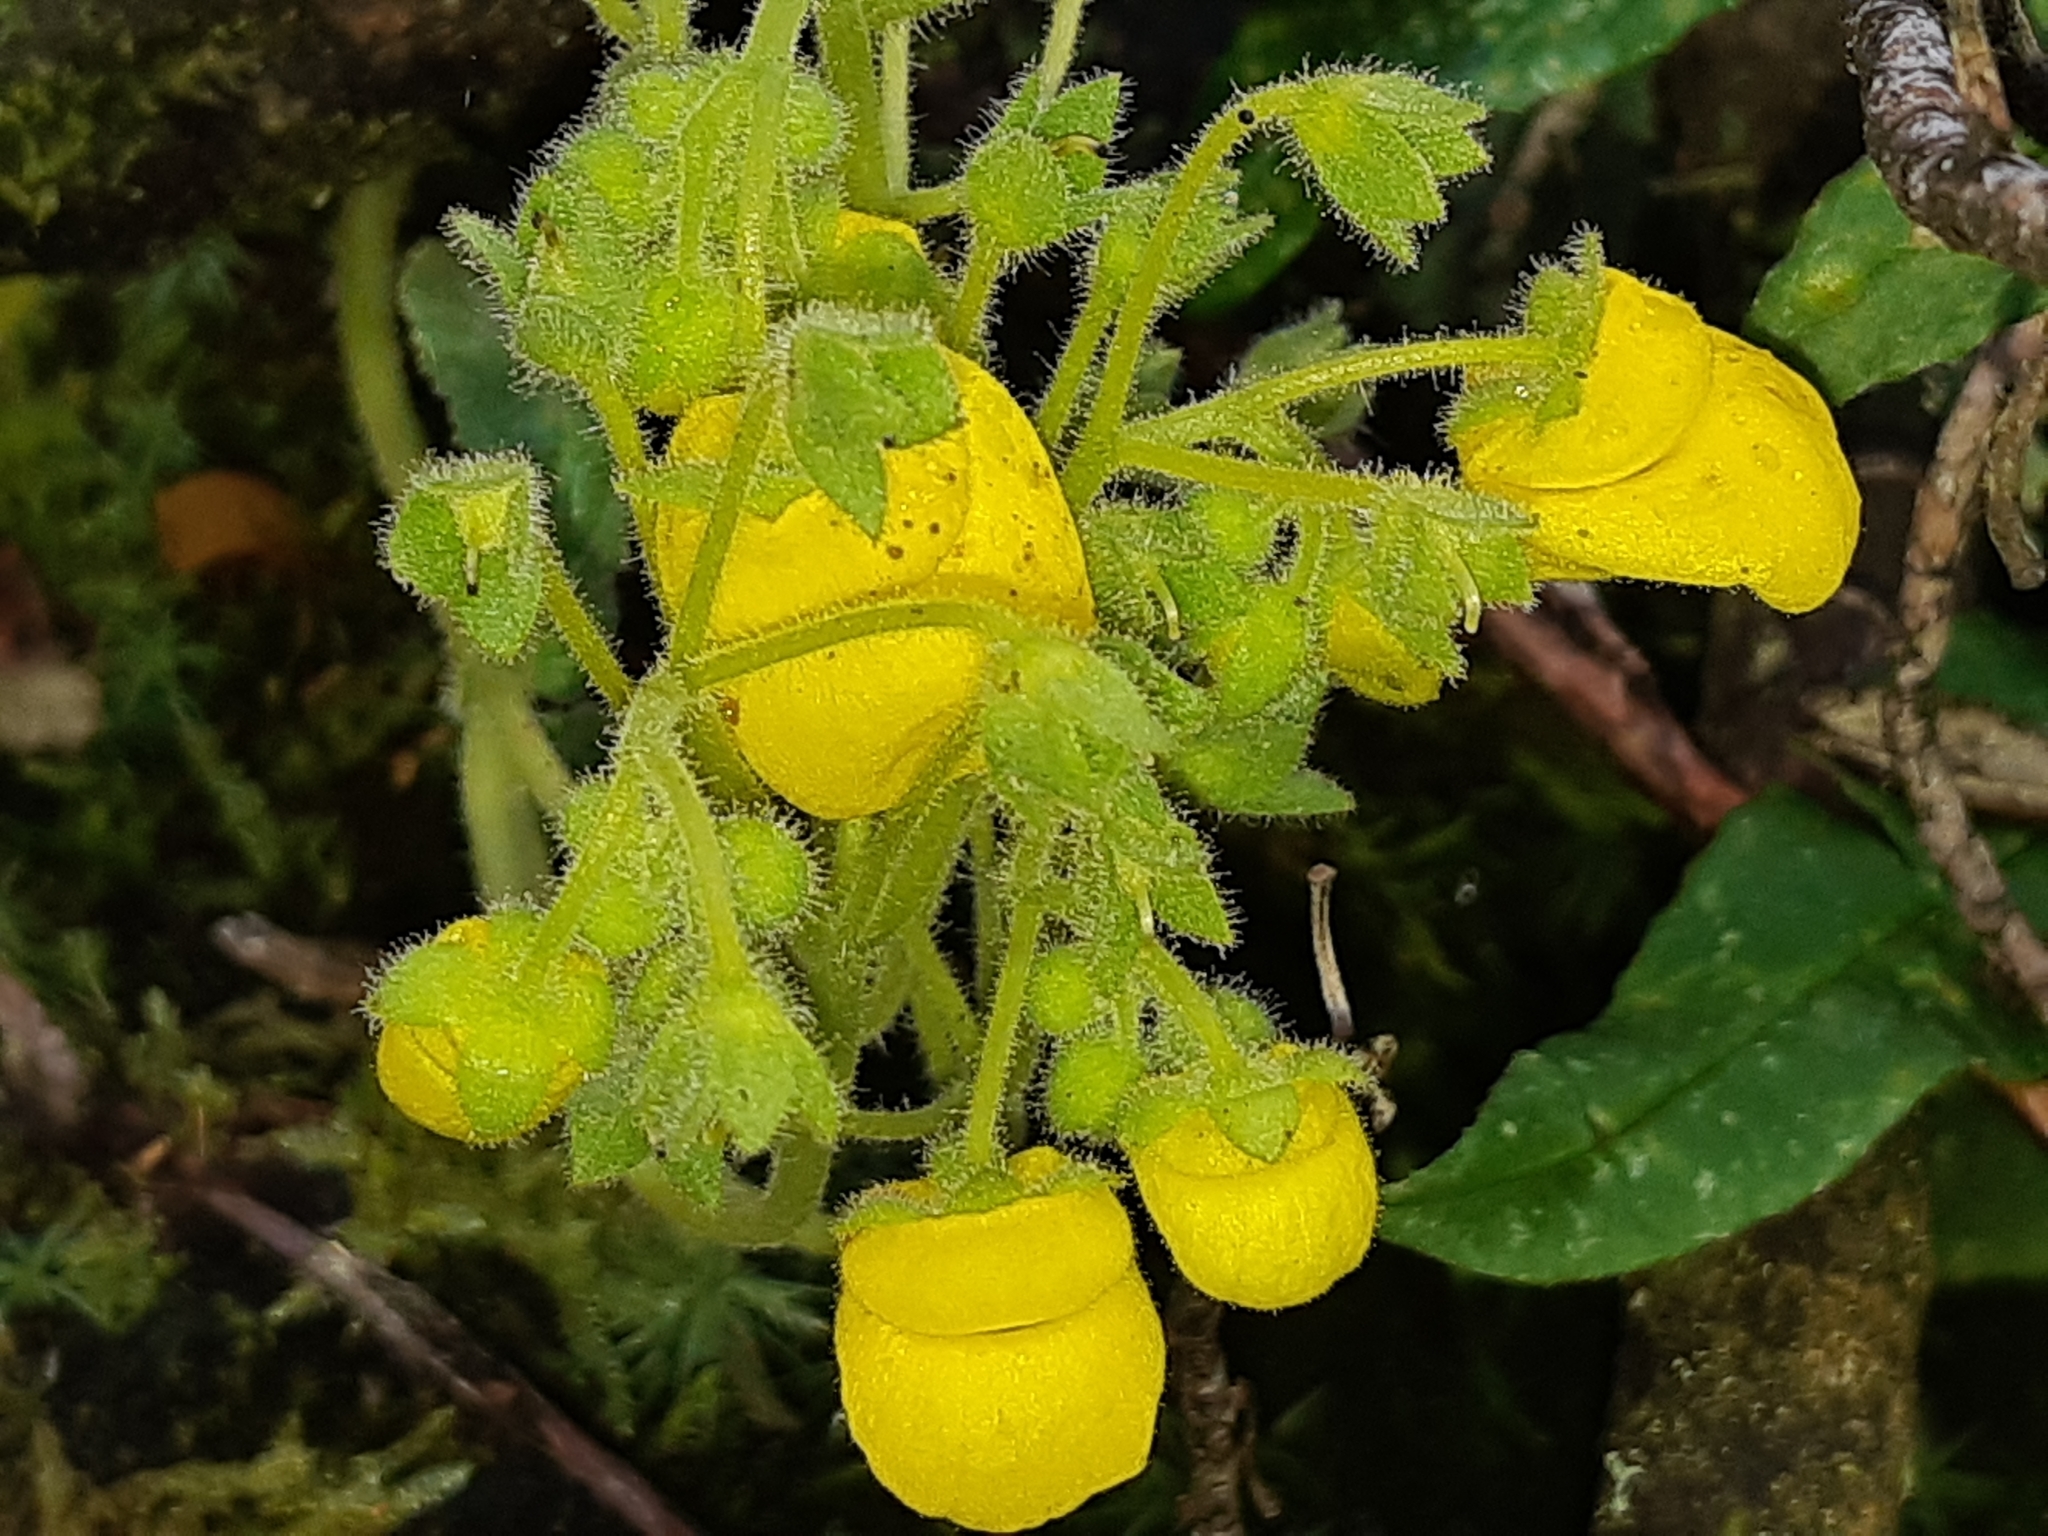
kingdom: Plantae
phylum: Tracheophyta
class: Magnoliopsida
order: Lamiales
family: Calceolariaceae
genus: Calceolaria
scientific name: Calceolaria crenata
